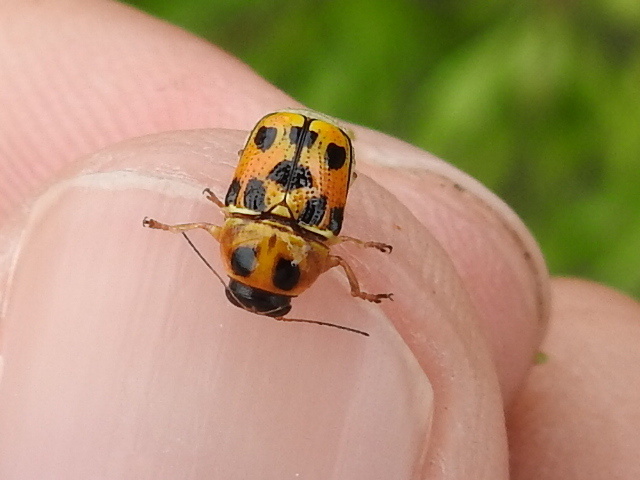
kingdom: Animalia
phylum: Arthropoda
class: Insecta
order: Coleoptera
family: Chrysomelidae
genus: Griburius
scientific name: Griburius rileyi
